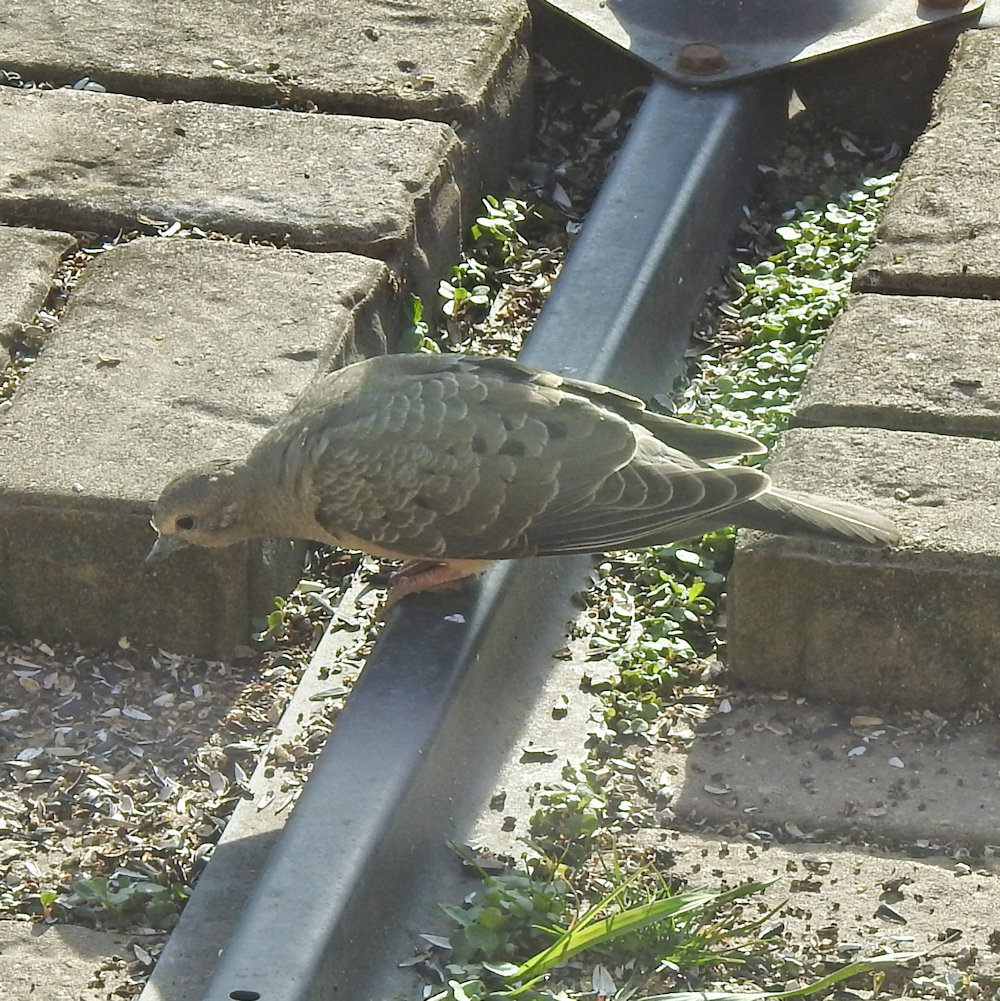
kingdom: Animalia
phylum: Chordata
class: Aves
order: Columbiformes
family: Columbidae
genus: Zenaida
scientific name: Zenaida macroura
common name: Mourning dove
